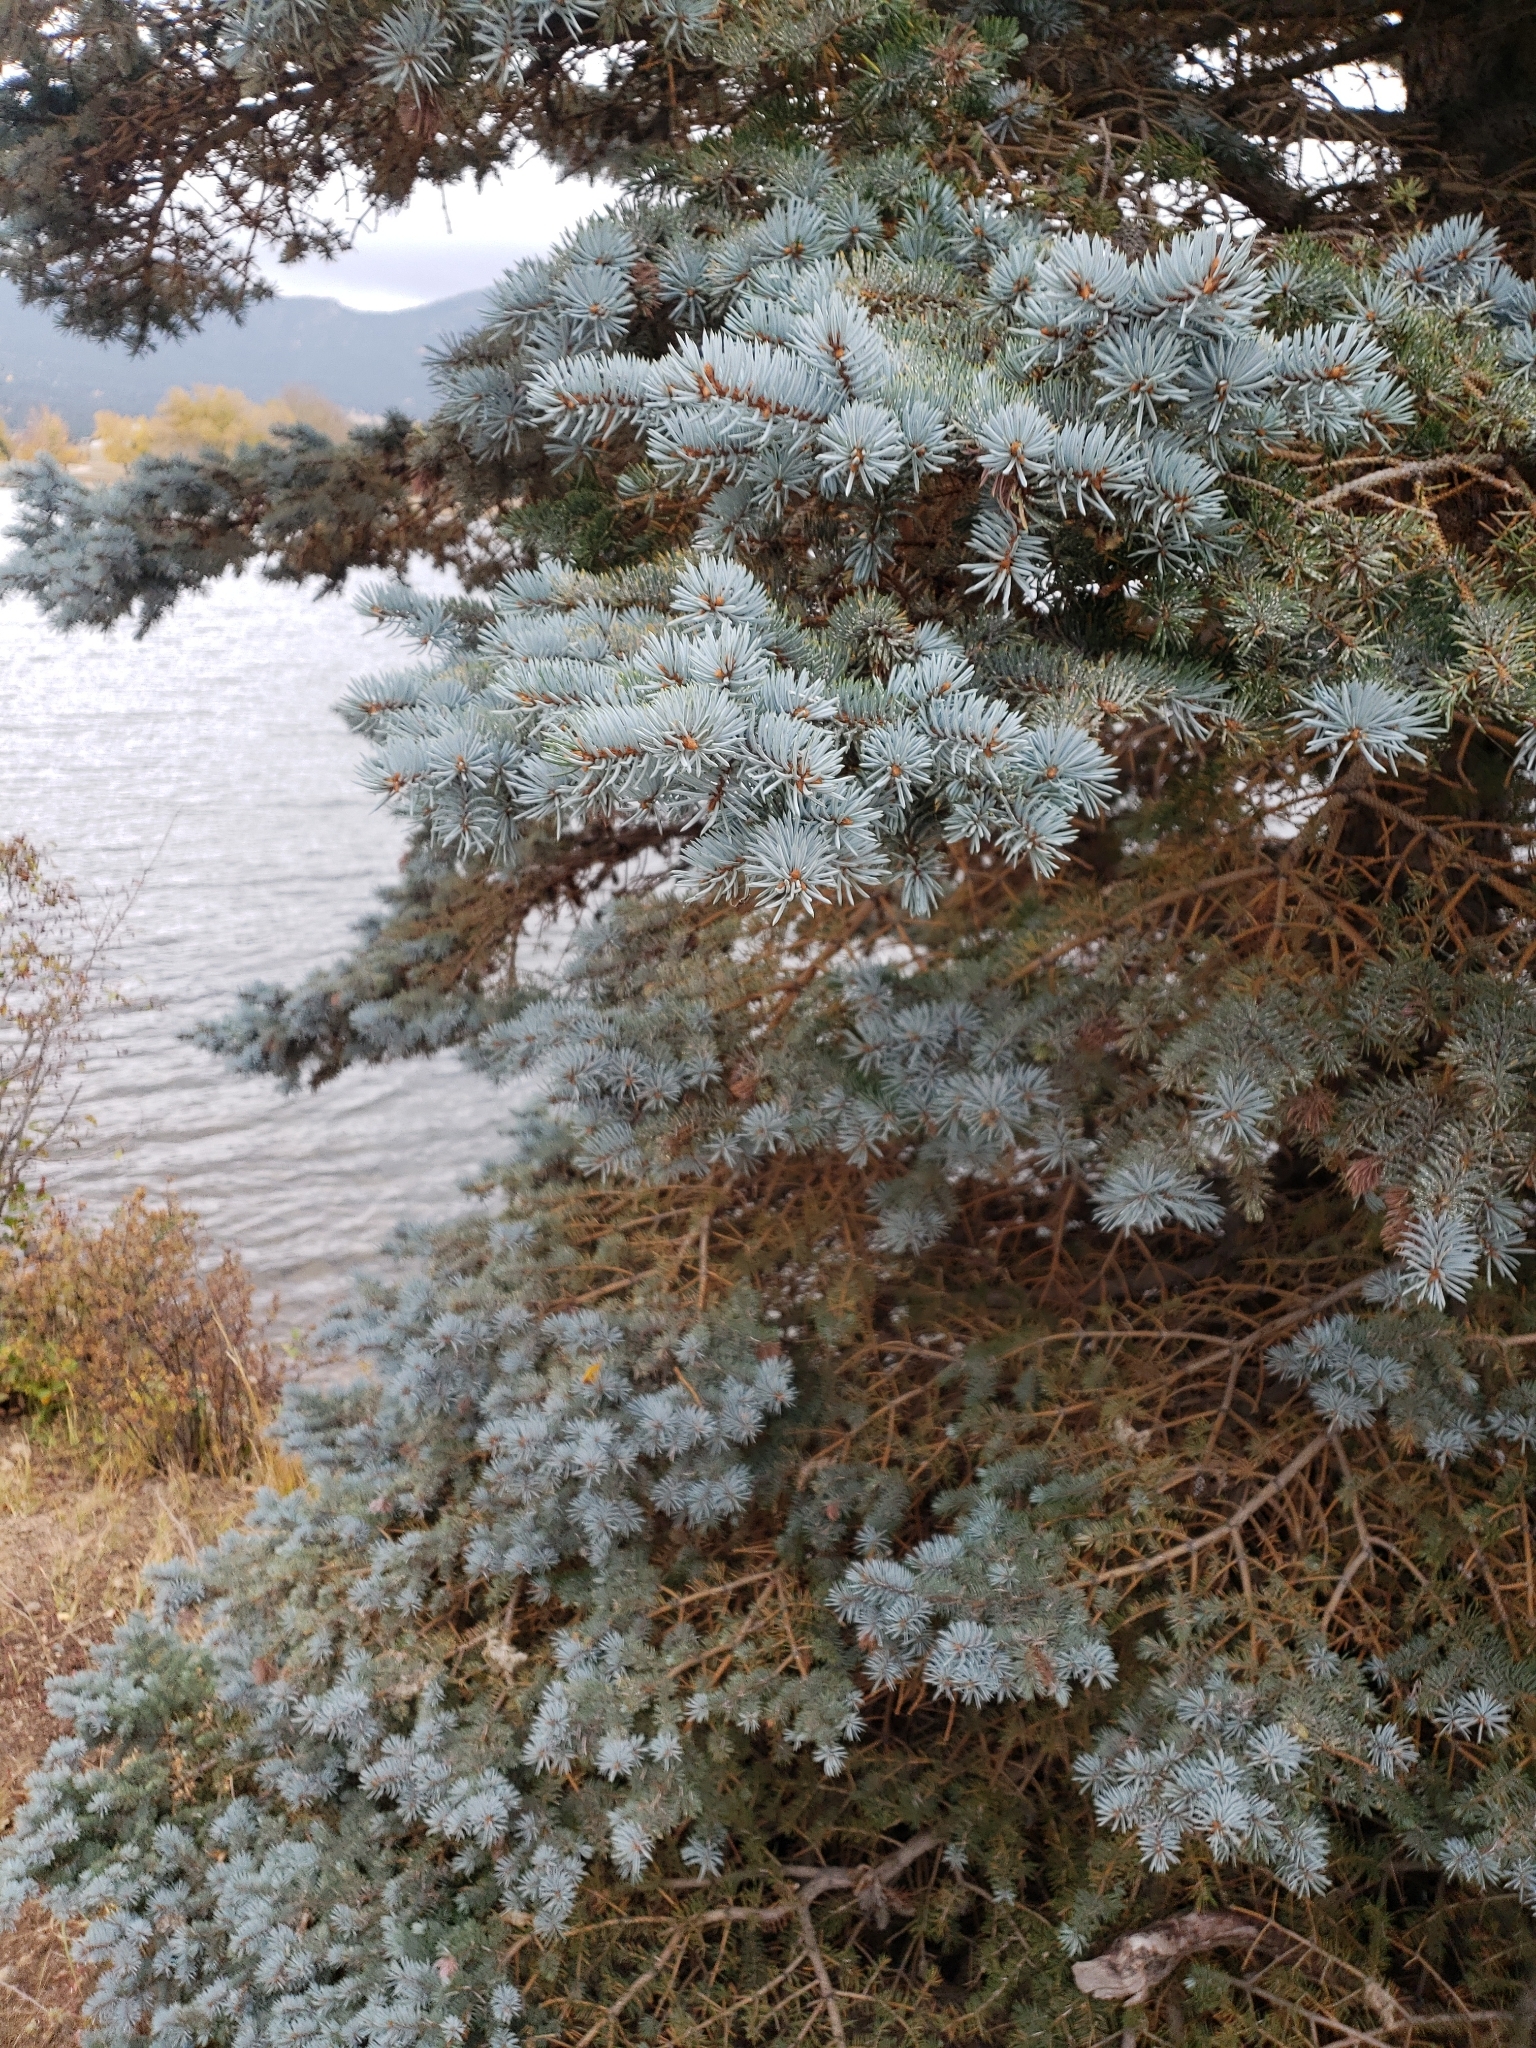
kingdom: Plantae
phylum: Tracheophyta
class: Pinopsida
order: Pinales
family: Pinaceae
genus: Picea
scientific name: Picea pungens
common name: Colorado spruce
